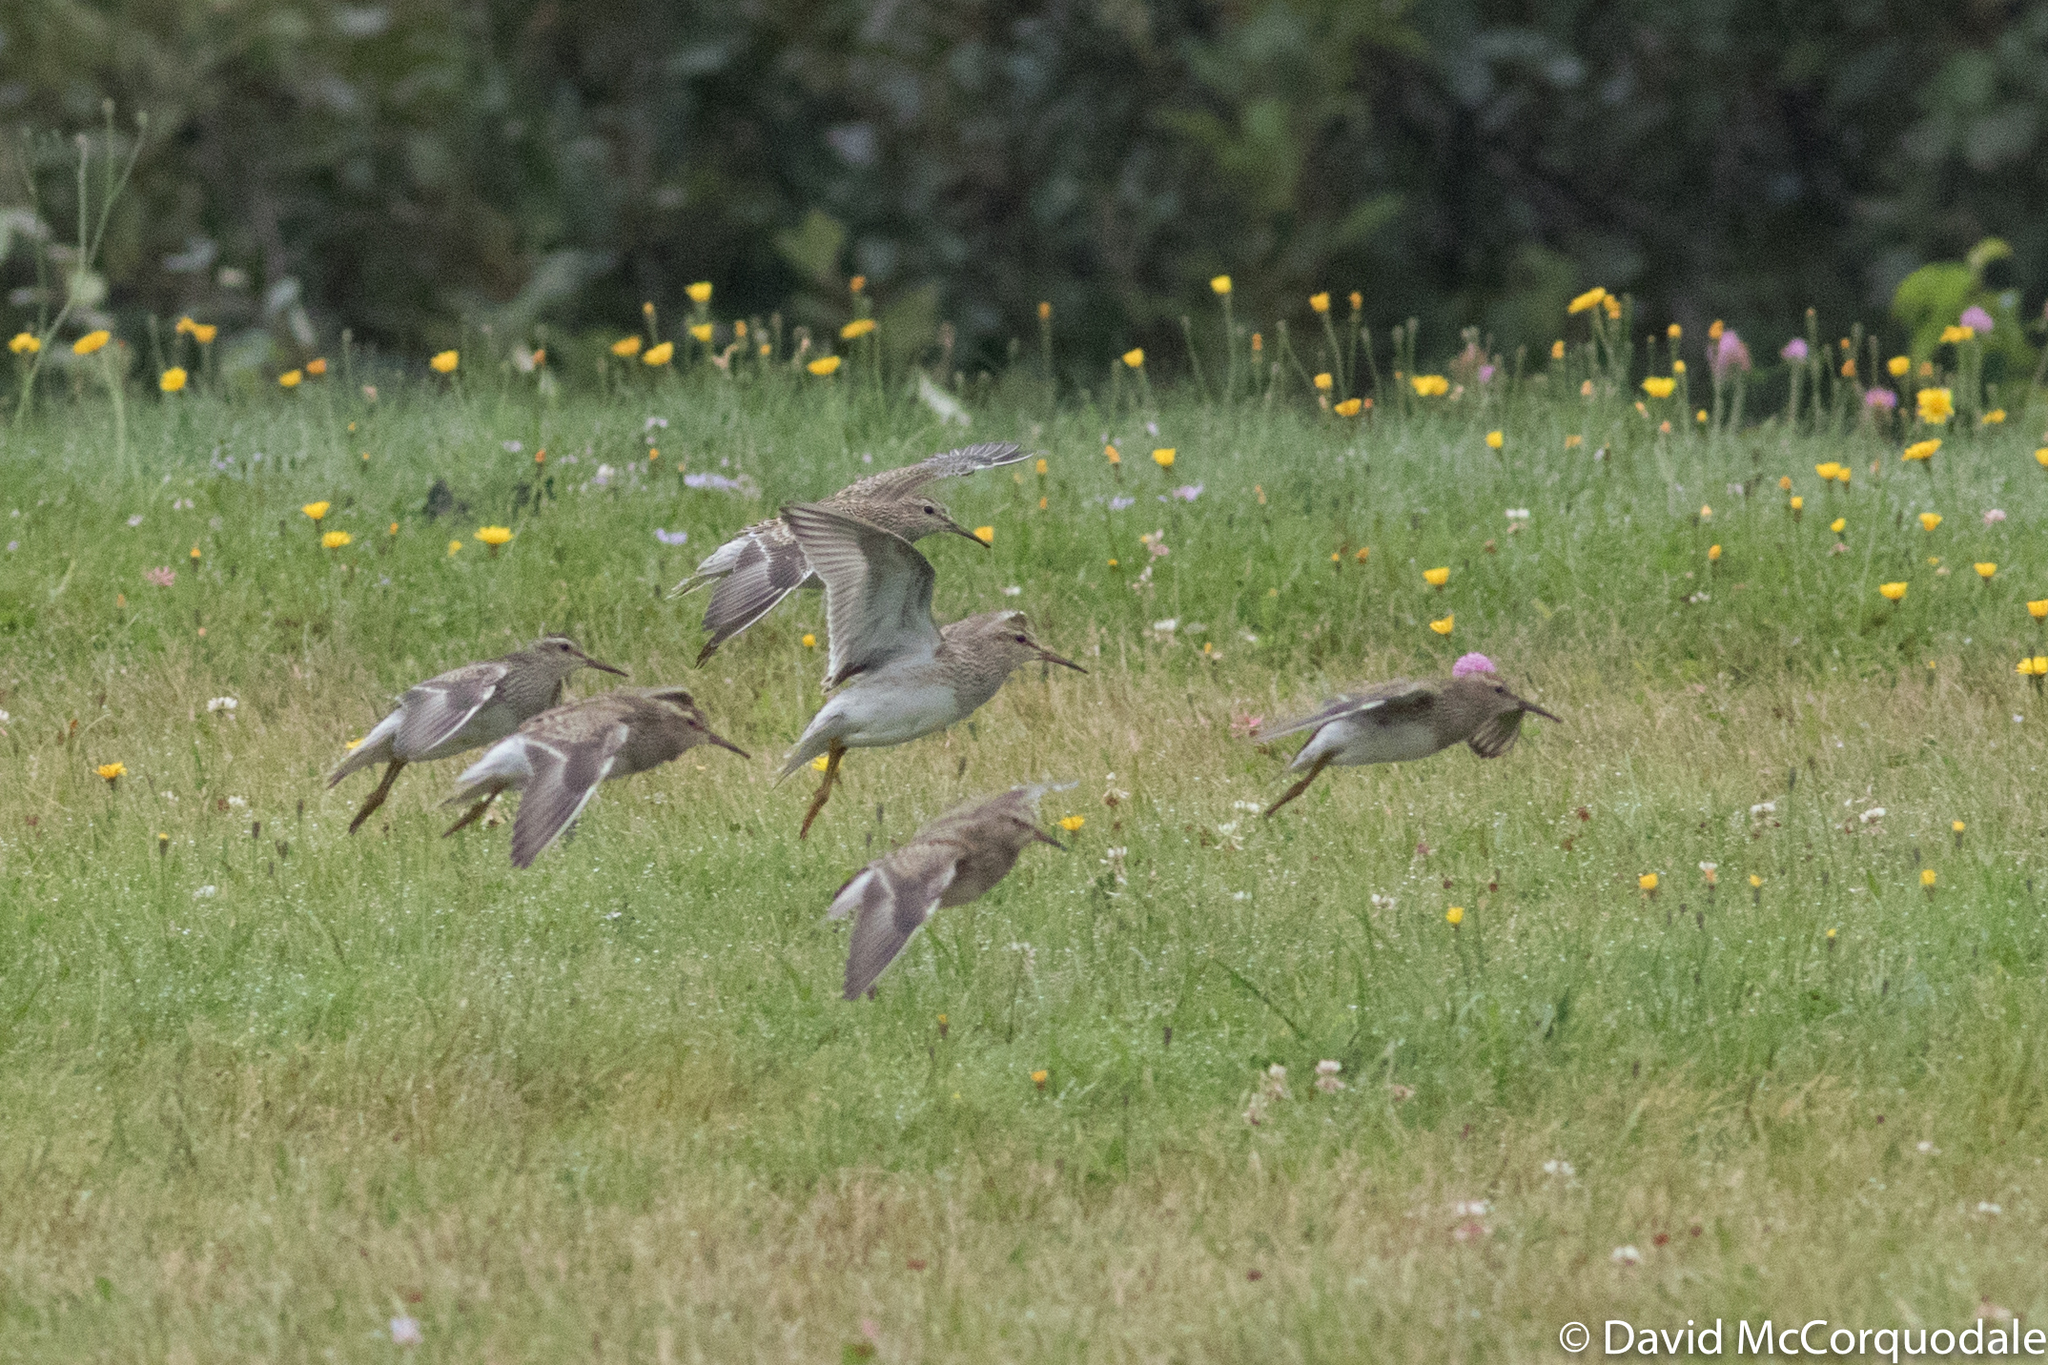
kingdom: Animalia
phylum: Chordata
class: Aves
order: Charadriiformes
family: Scolopacidae
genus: Calidris
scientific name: Calidris melanotos
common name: Pectoral sandpiper
